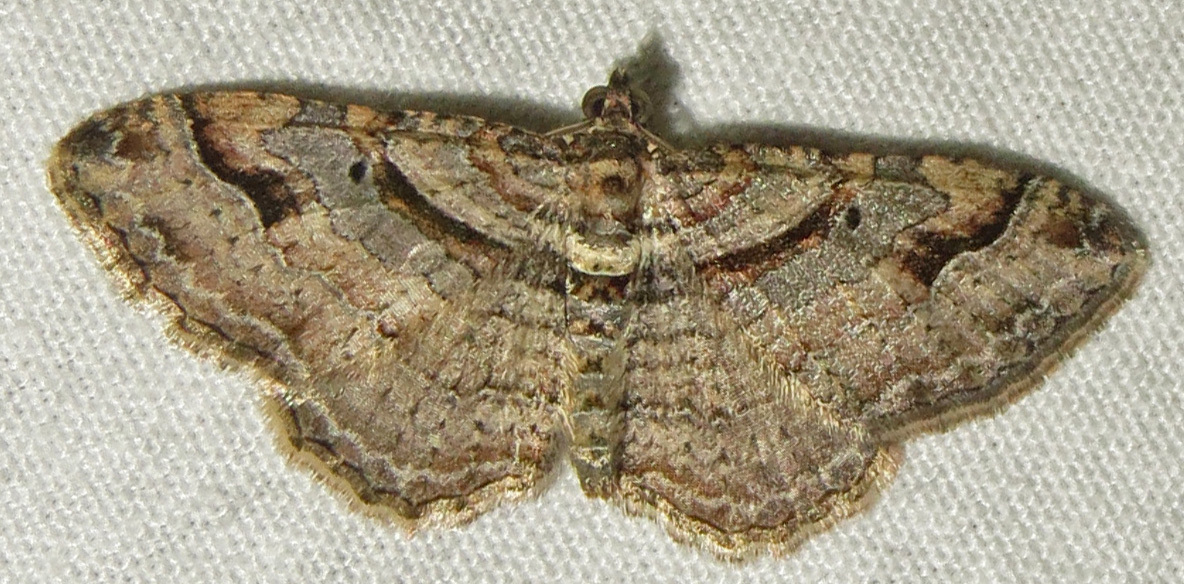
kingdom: Animalia
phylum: Arthropoda
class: Insecta
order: Lepidoptera
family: Geometridae
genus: Costaconvexa
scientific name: Costaconvexa centrostrigaria
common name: Bent-line carpet
